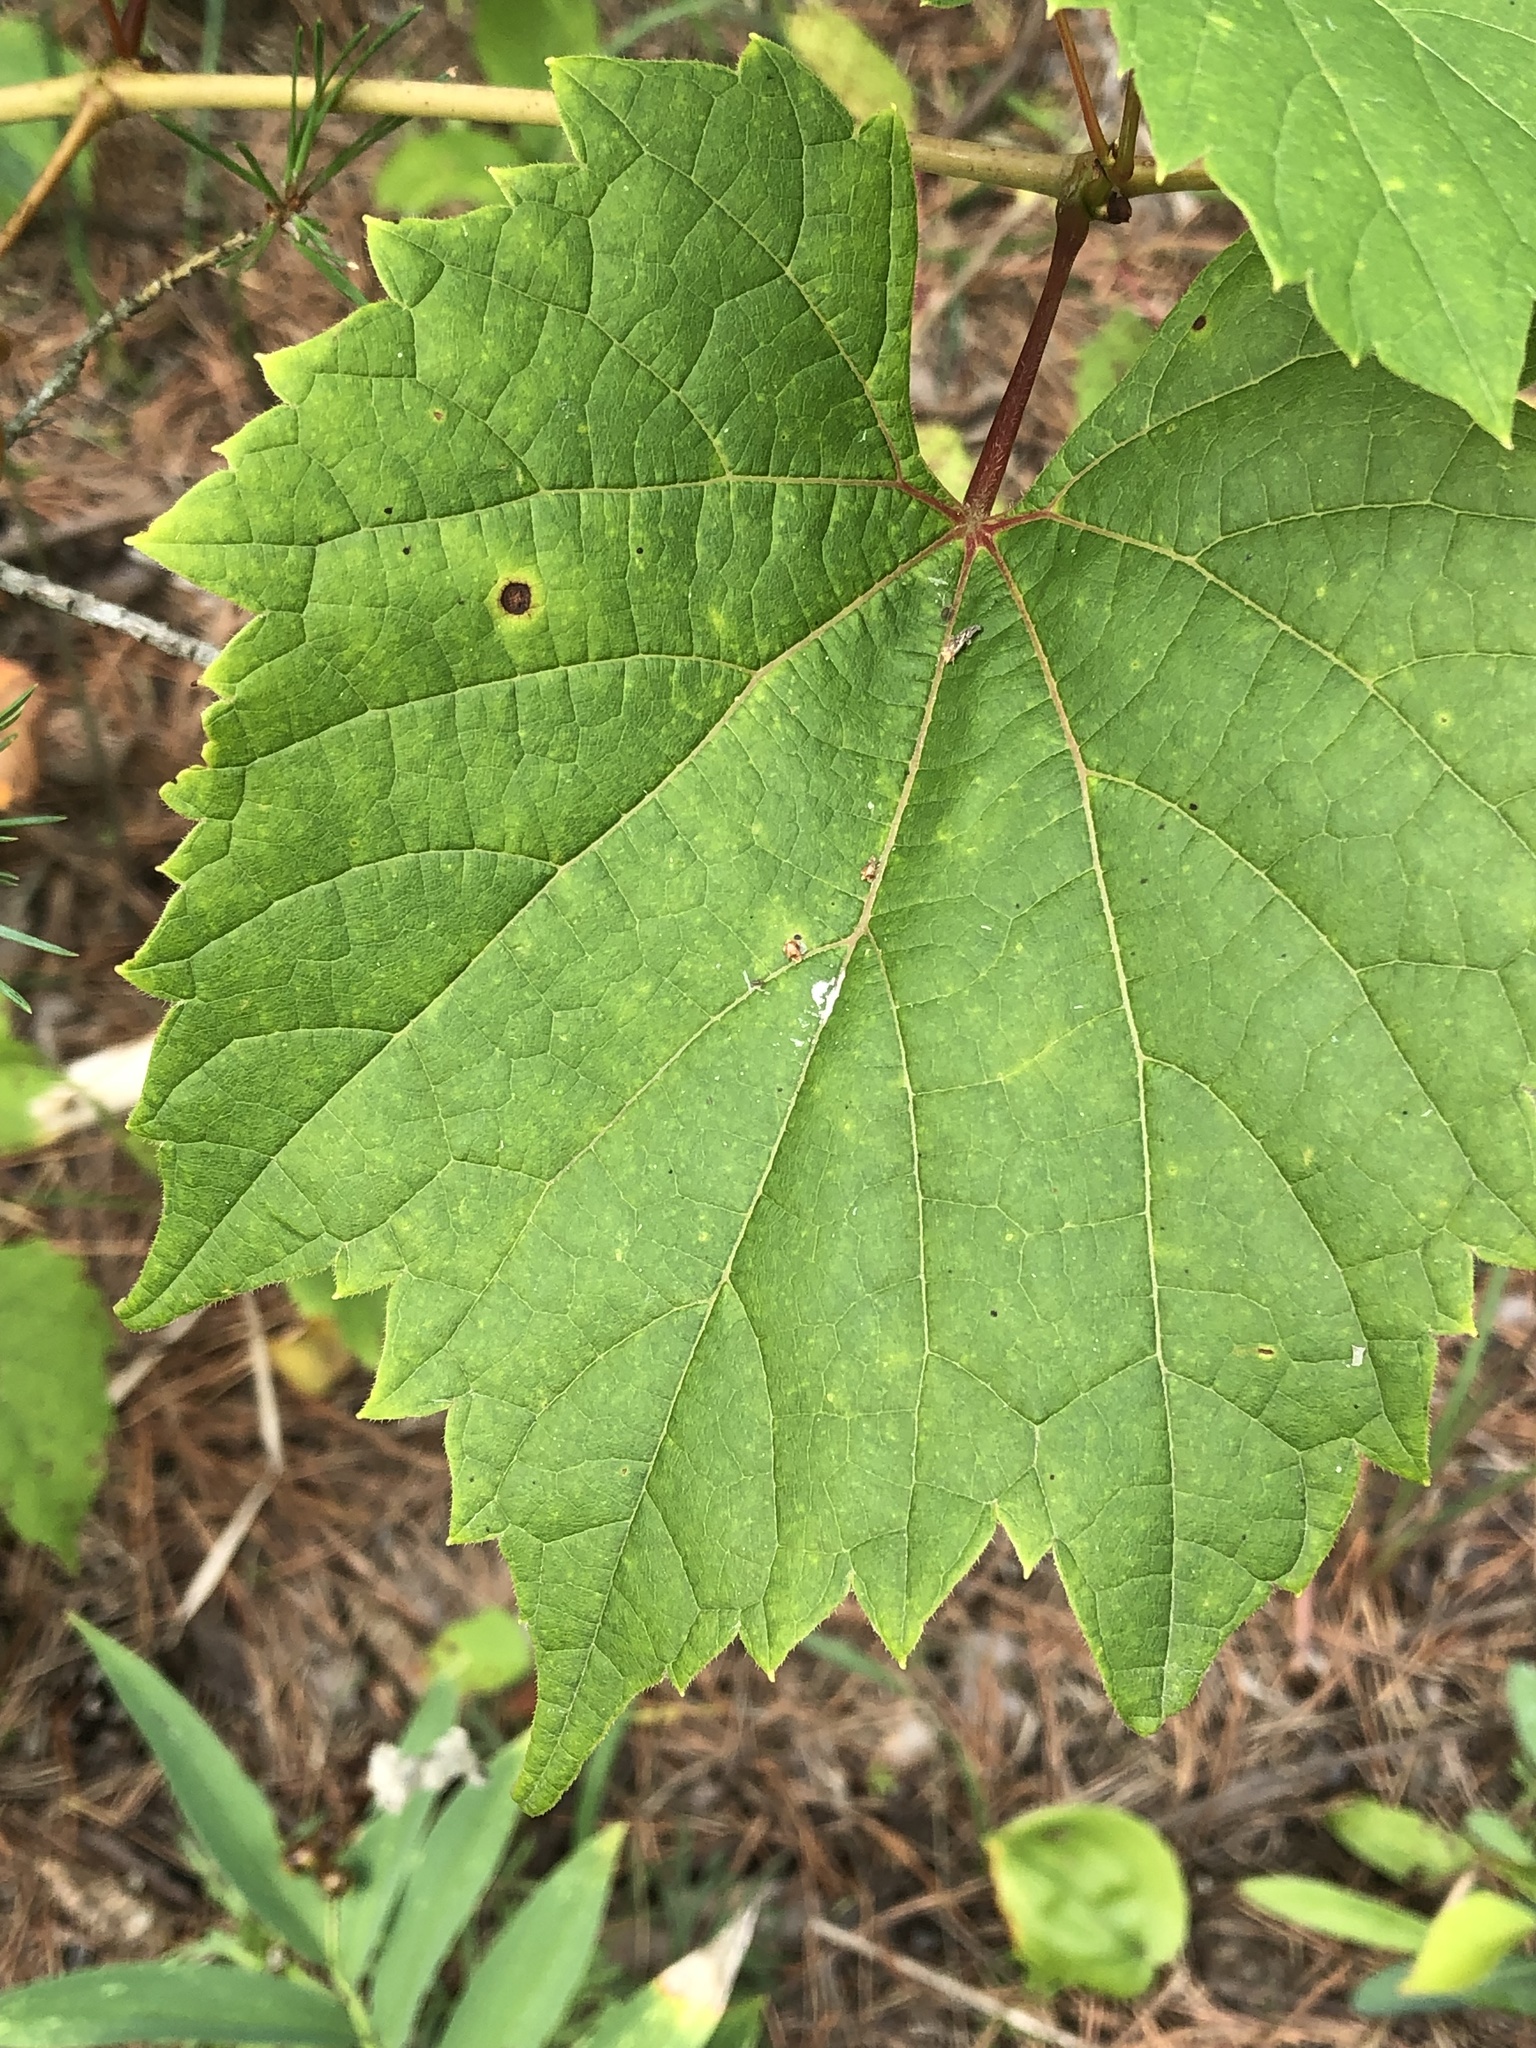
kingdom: Plantae
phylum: Tracheophyta
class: Magnoliopsida
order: Vitales
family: Vitaceae
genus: Vitis
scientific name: Vitis riparia
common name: Frost grape
